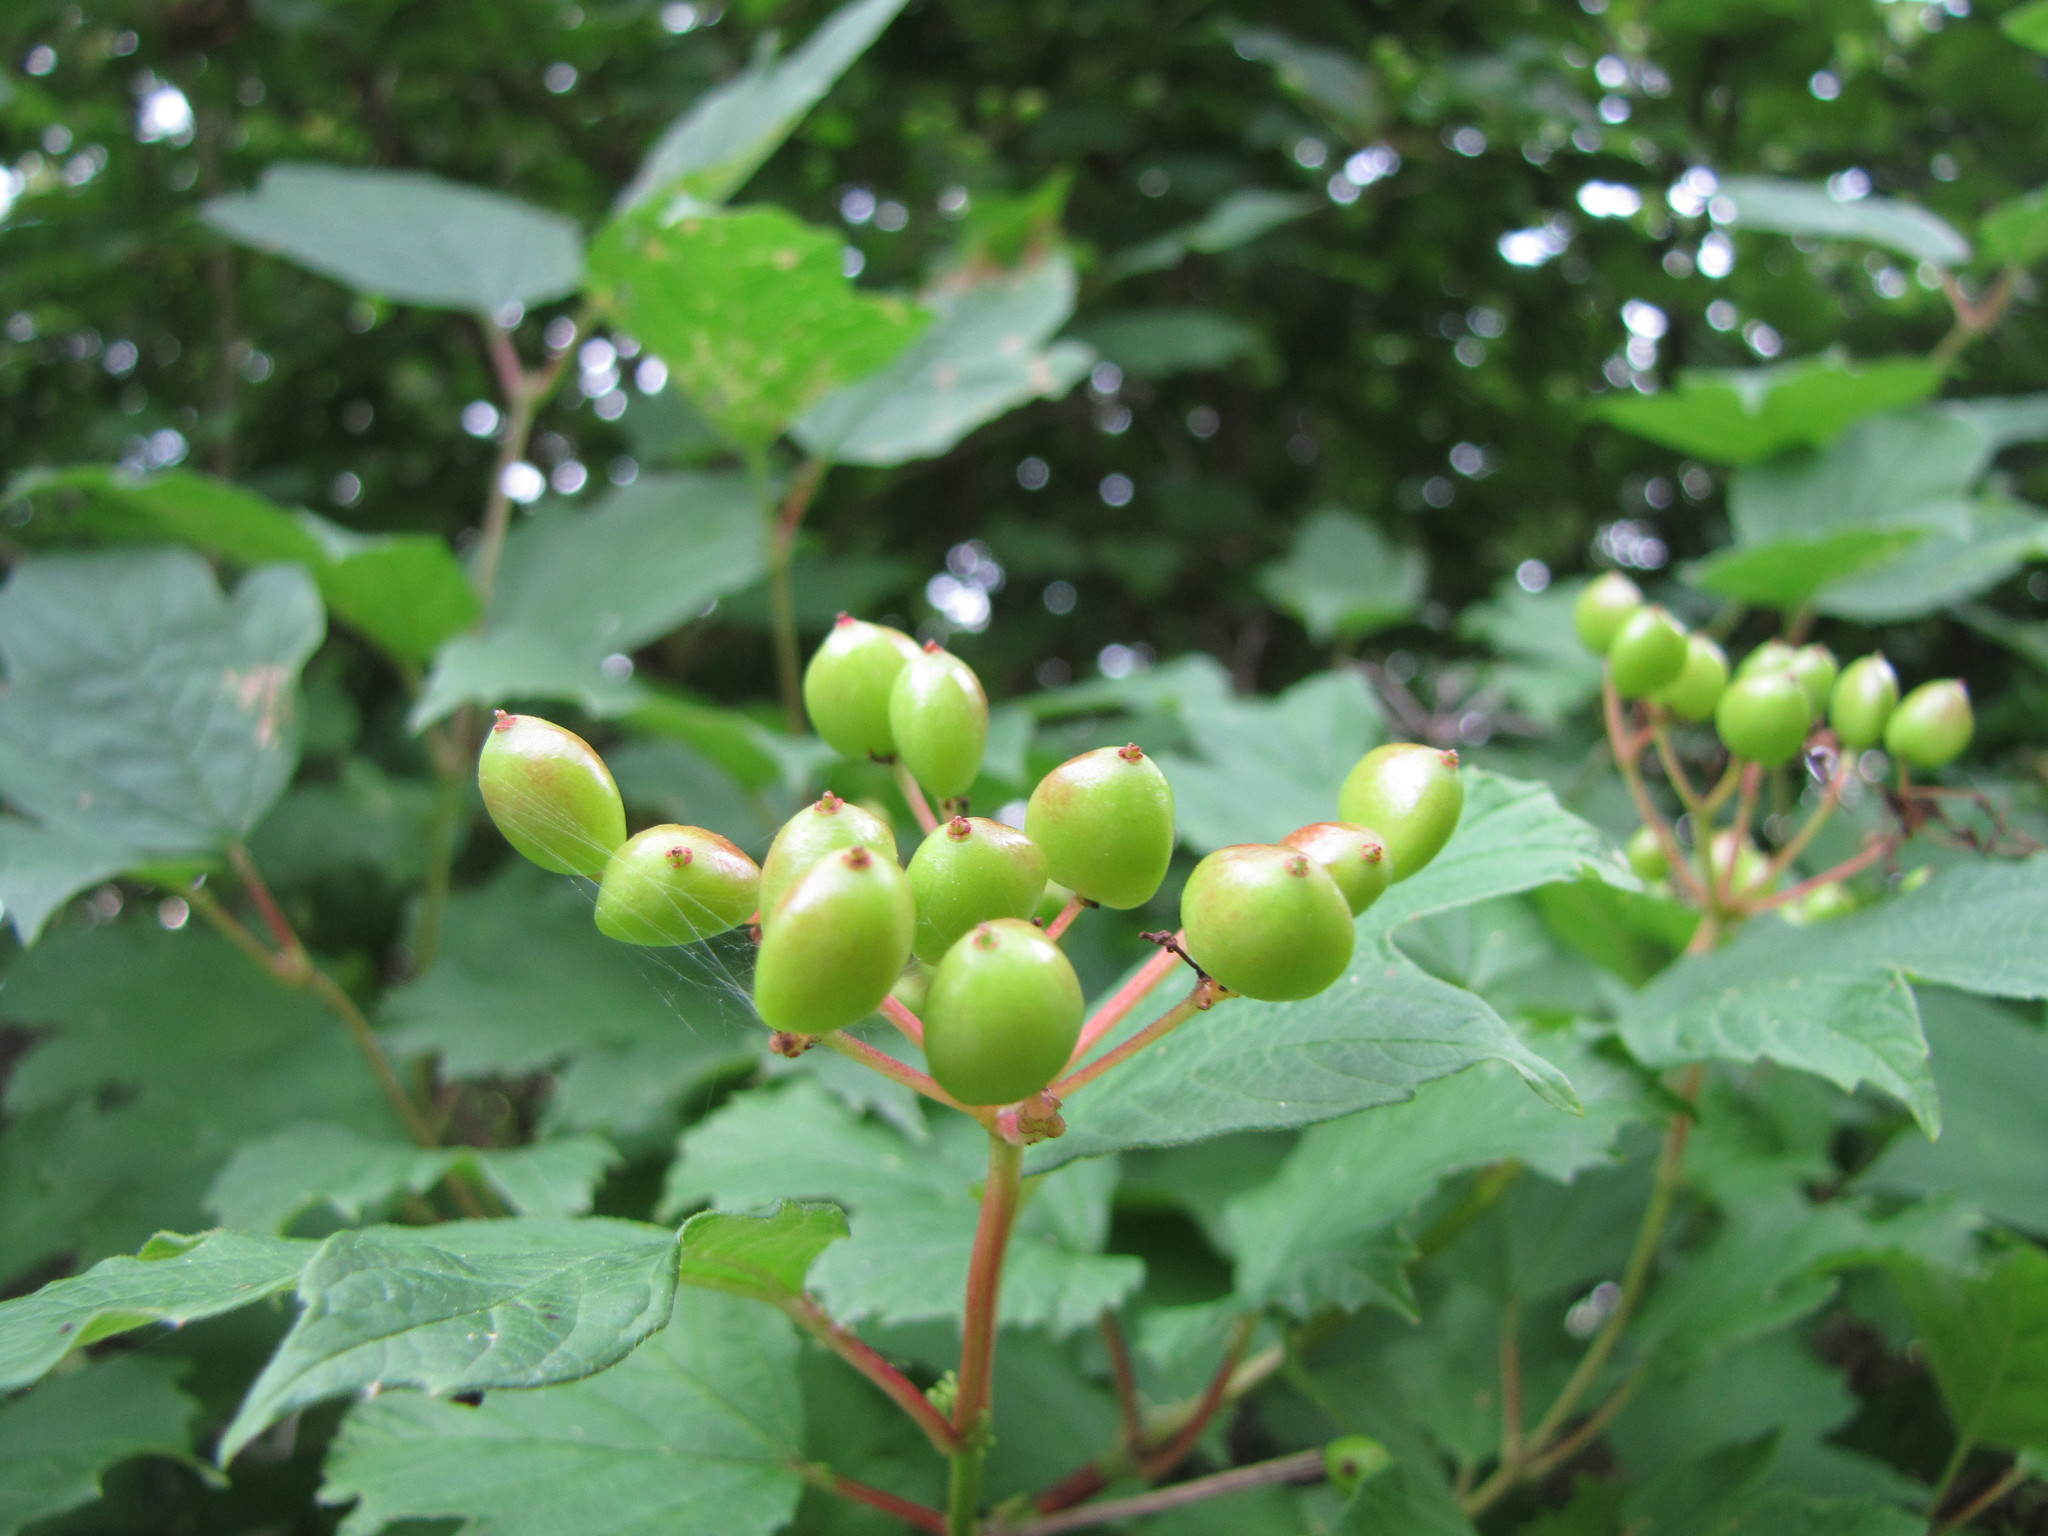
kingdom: Plantae
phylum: Tracheophyta
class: Magnoliopsida
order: Dipsacales
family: Viburnaceae
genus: Viburnum
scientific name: Viburnum opulus
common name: Guelder-rose
